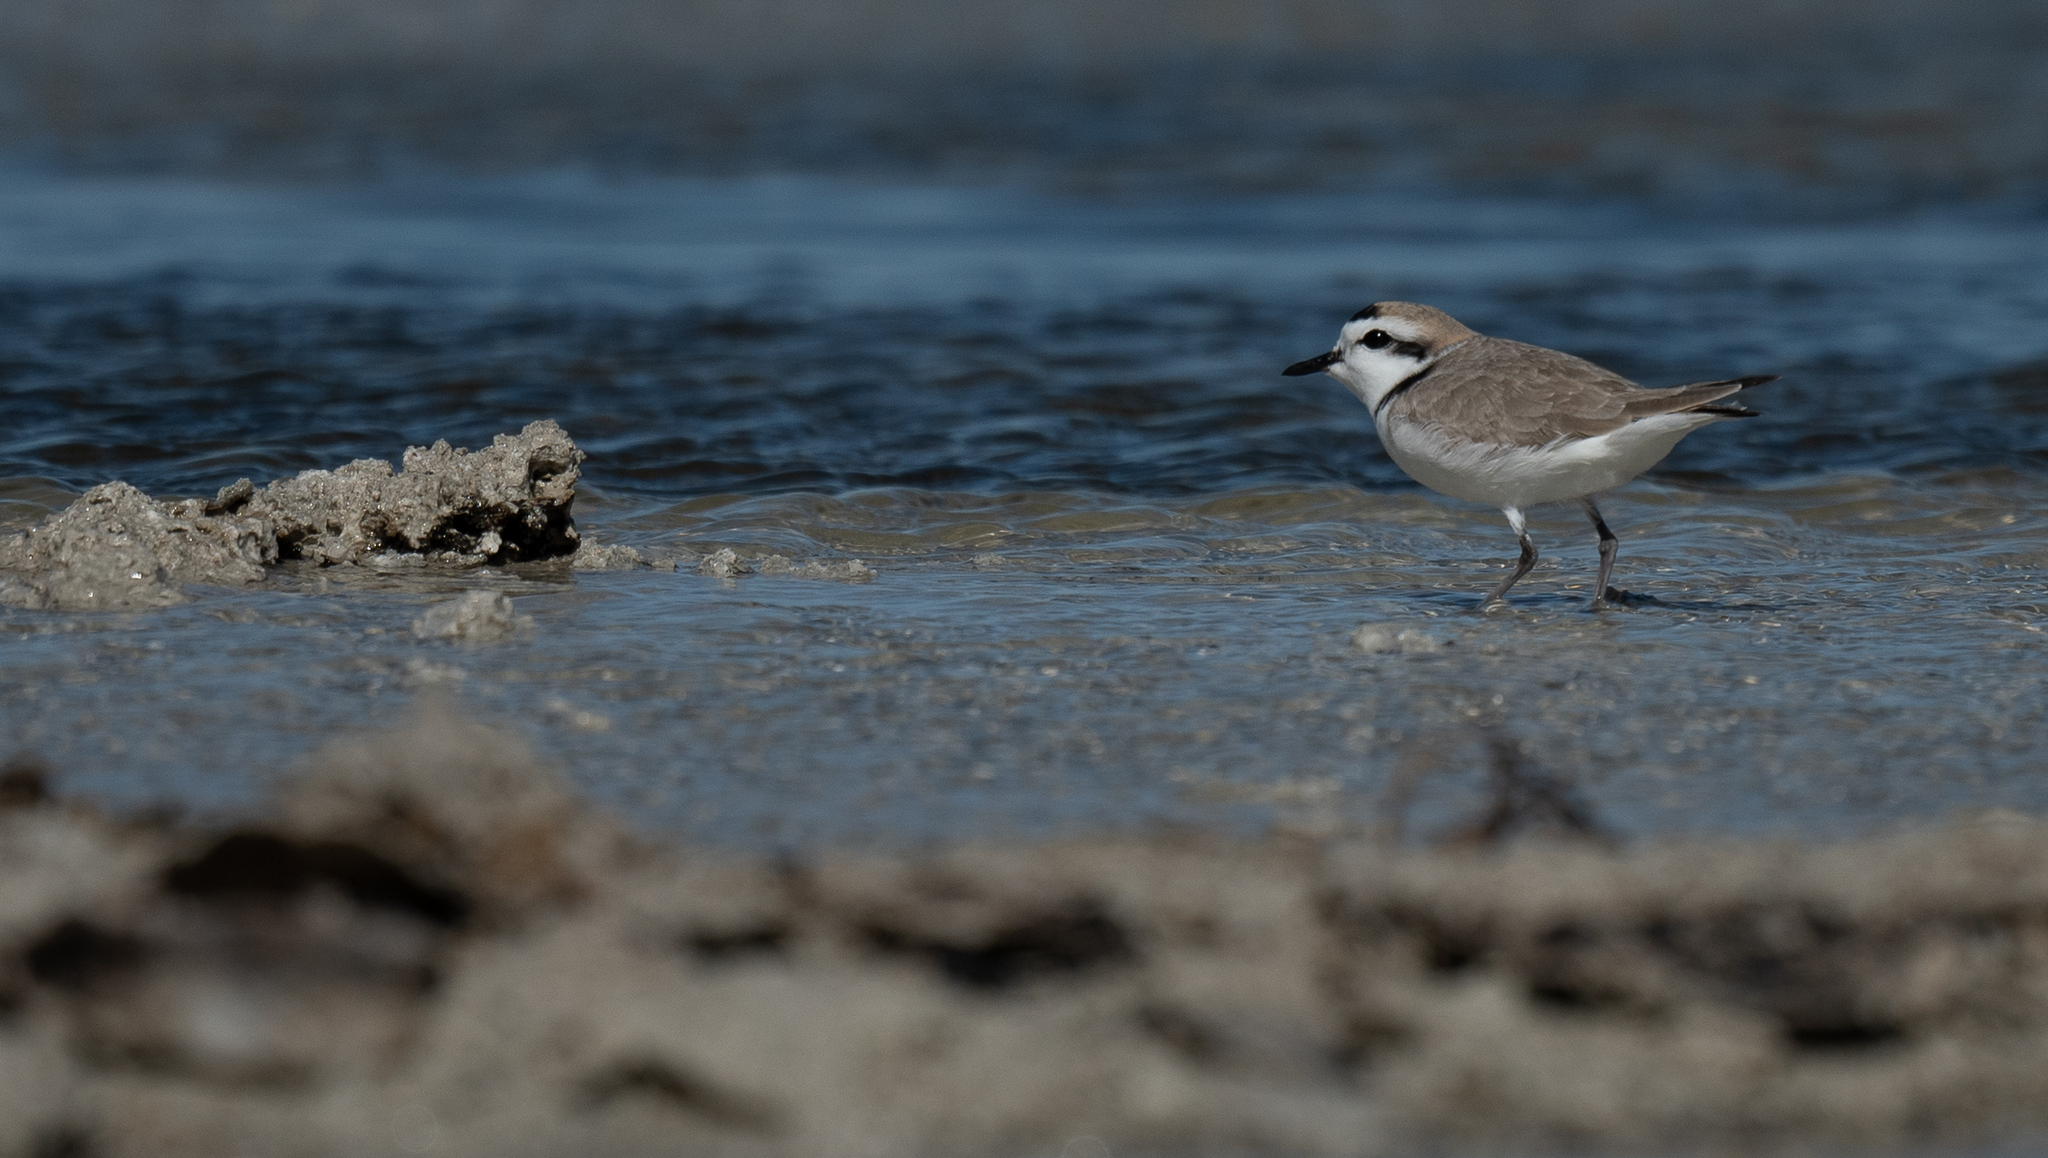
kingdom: Animalia
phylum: Chordata
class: Aves
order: Charadriiformes
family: Charadriidae
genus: Anarhynchus
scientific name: Anarhynchus
